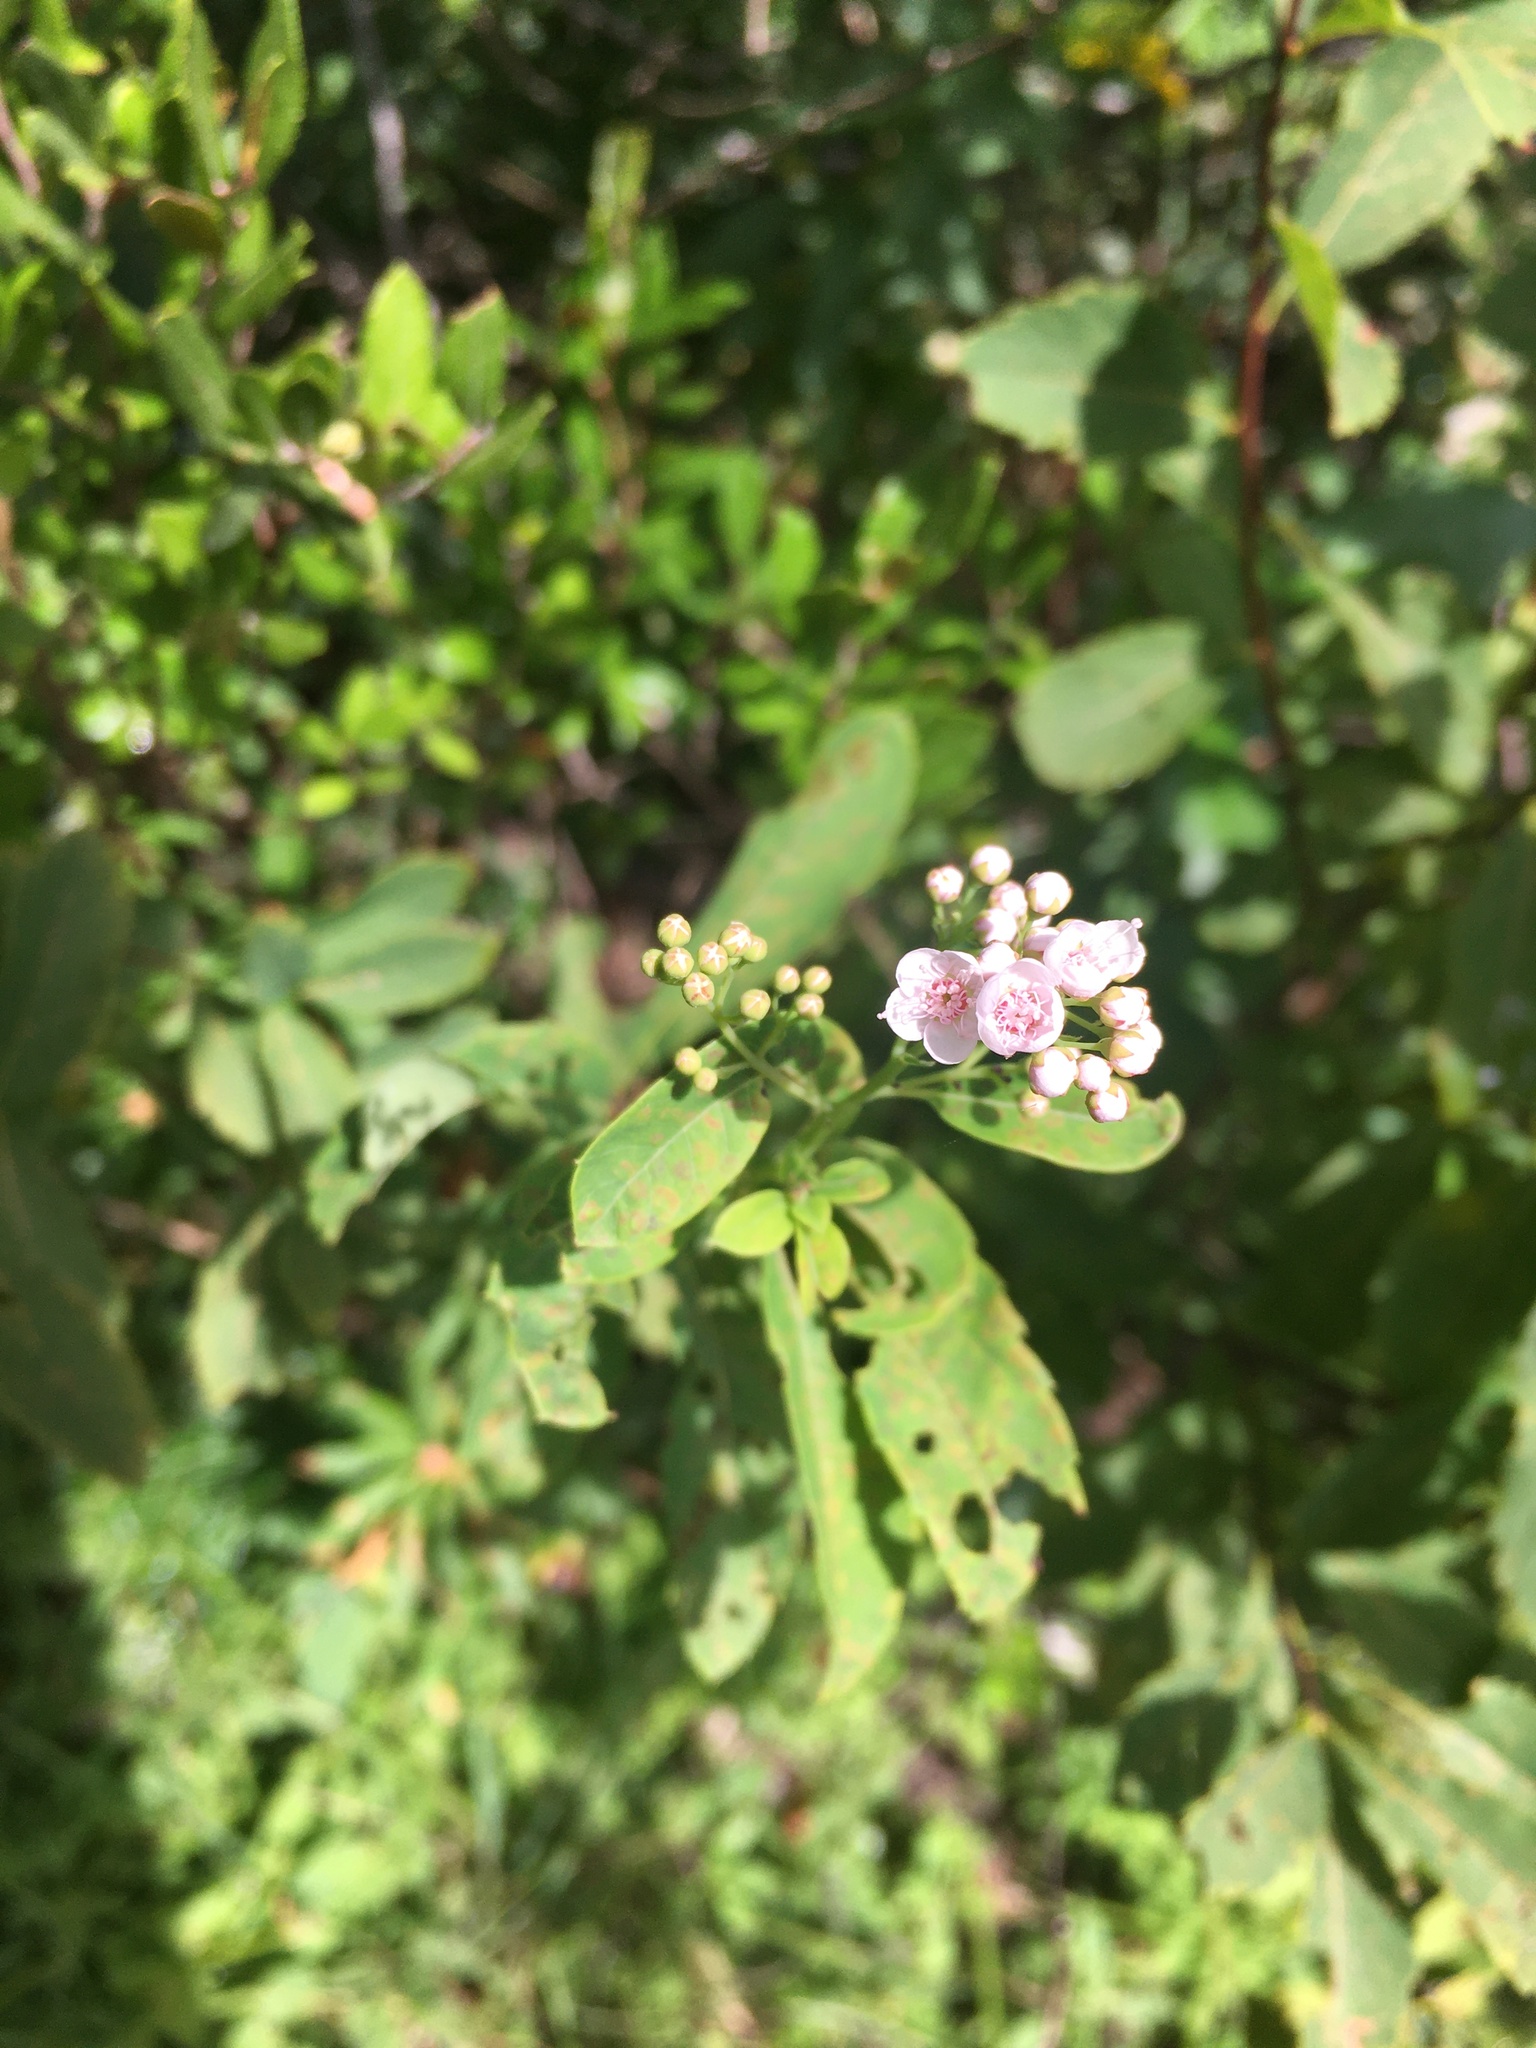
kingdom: Plantae
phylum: Tracheophyta
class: Magnoliopsida
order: Rosales
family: Rosaceae
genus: Spiraea
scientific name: Spiraea alba
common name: Pale bridewort
